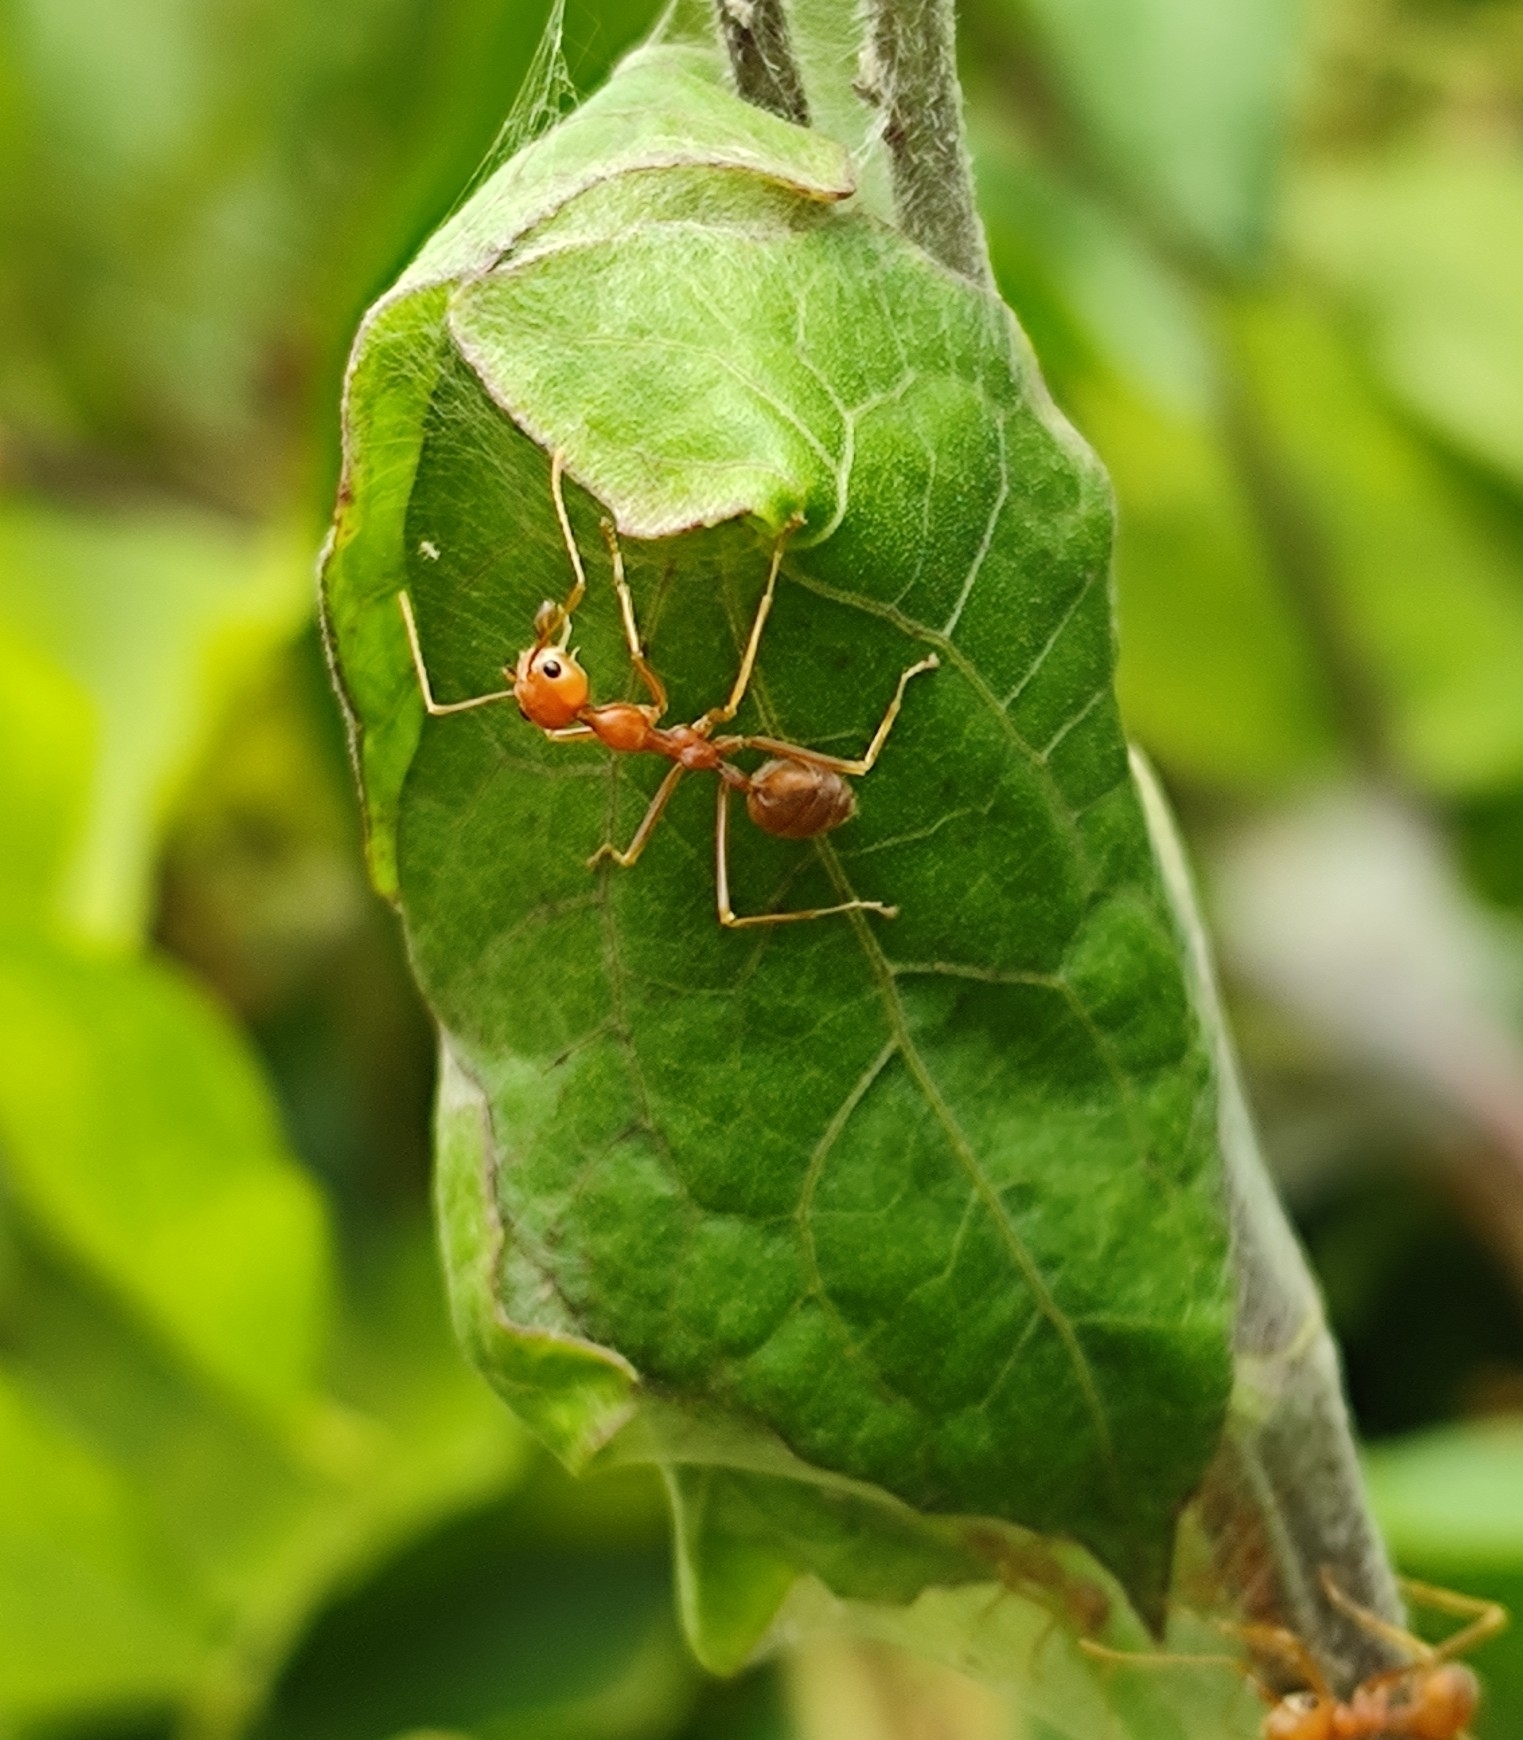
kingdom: Animalia
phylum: Arthropoda
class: Insecta
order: Hymenoptera
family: Formicidae
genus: Oecophylla
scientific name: Oecophylla smaragdina
